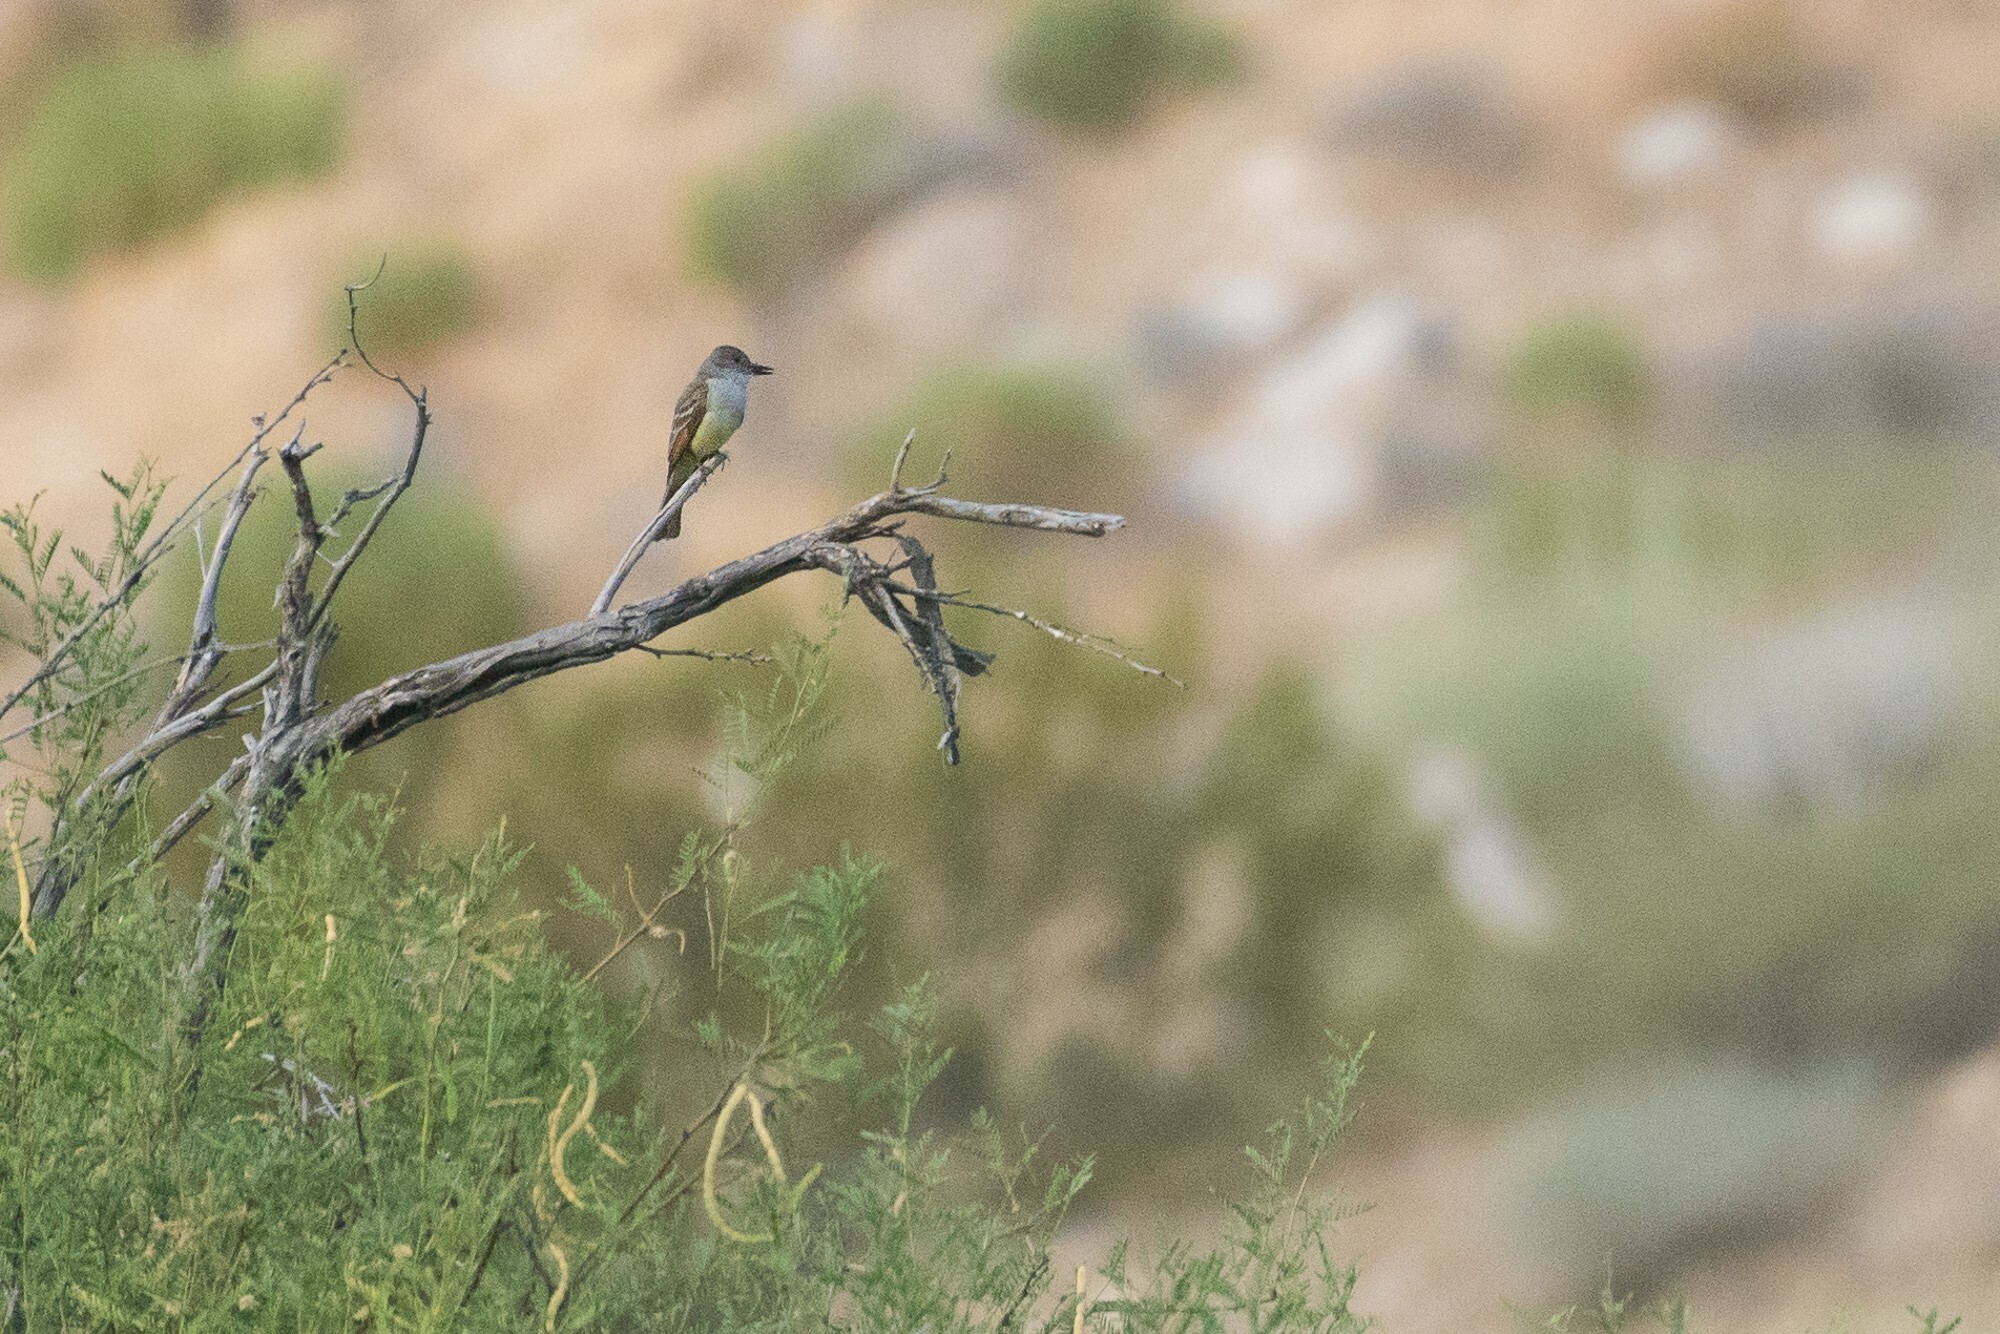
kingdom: Animalia
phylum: Chordata
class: Aves
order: Passeriformes
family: Tyrannidae
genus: Myiarchus
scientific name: Myiarchus tyrannulus
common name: Brown-crested flycatcher
